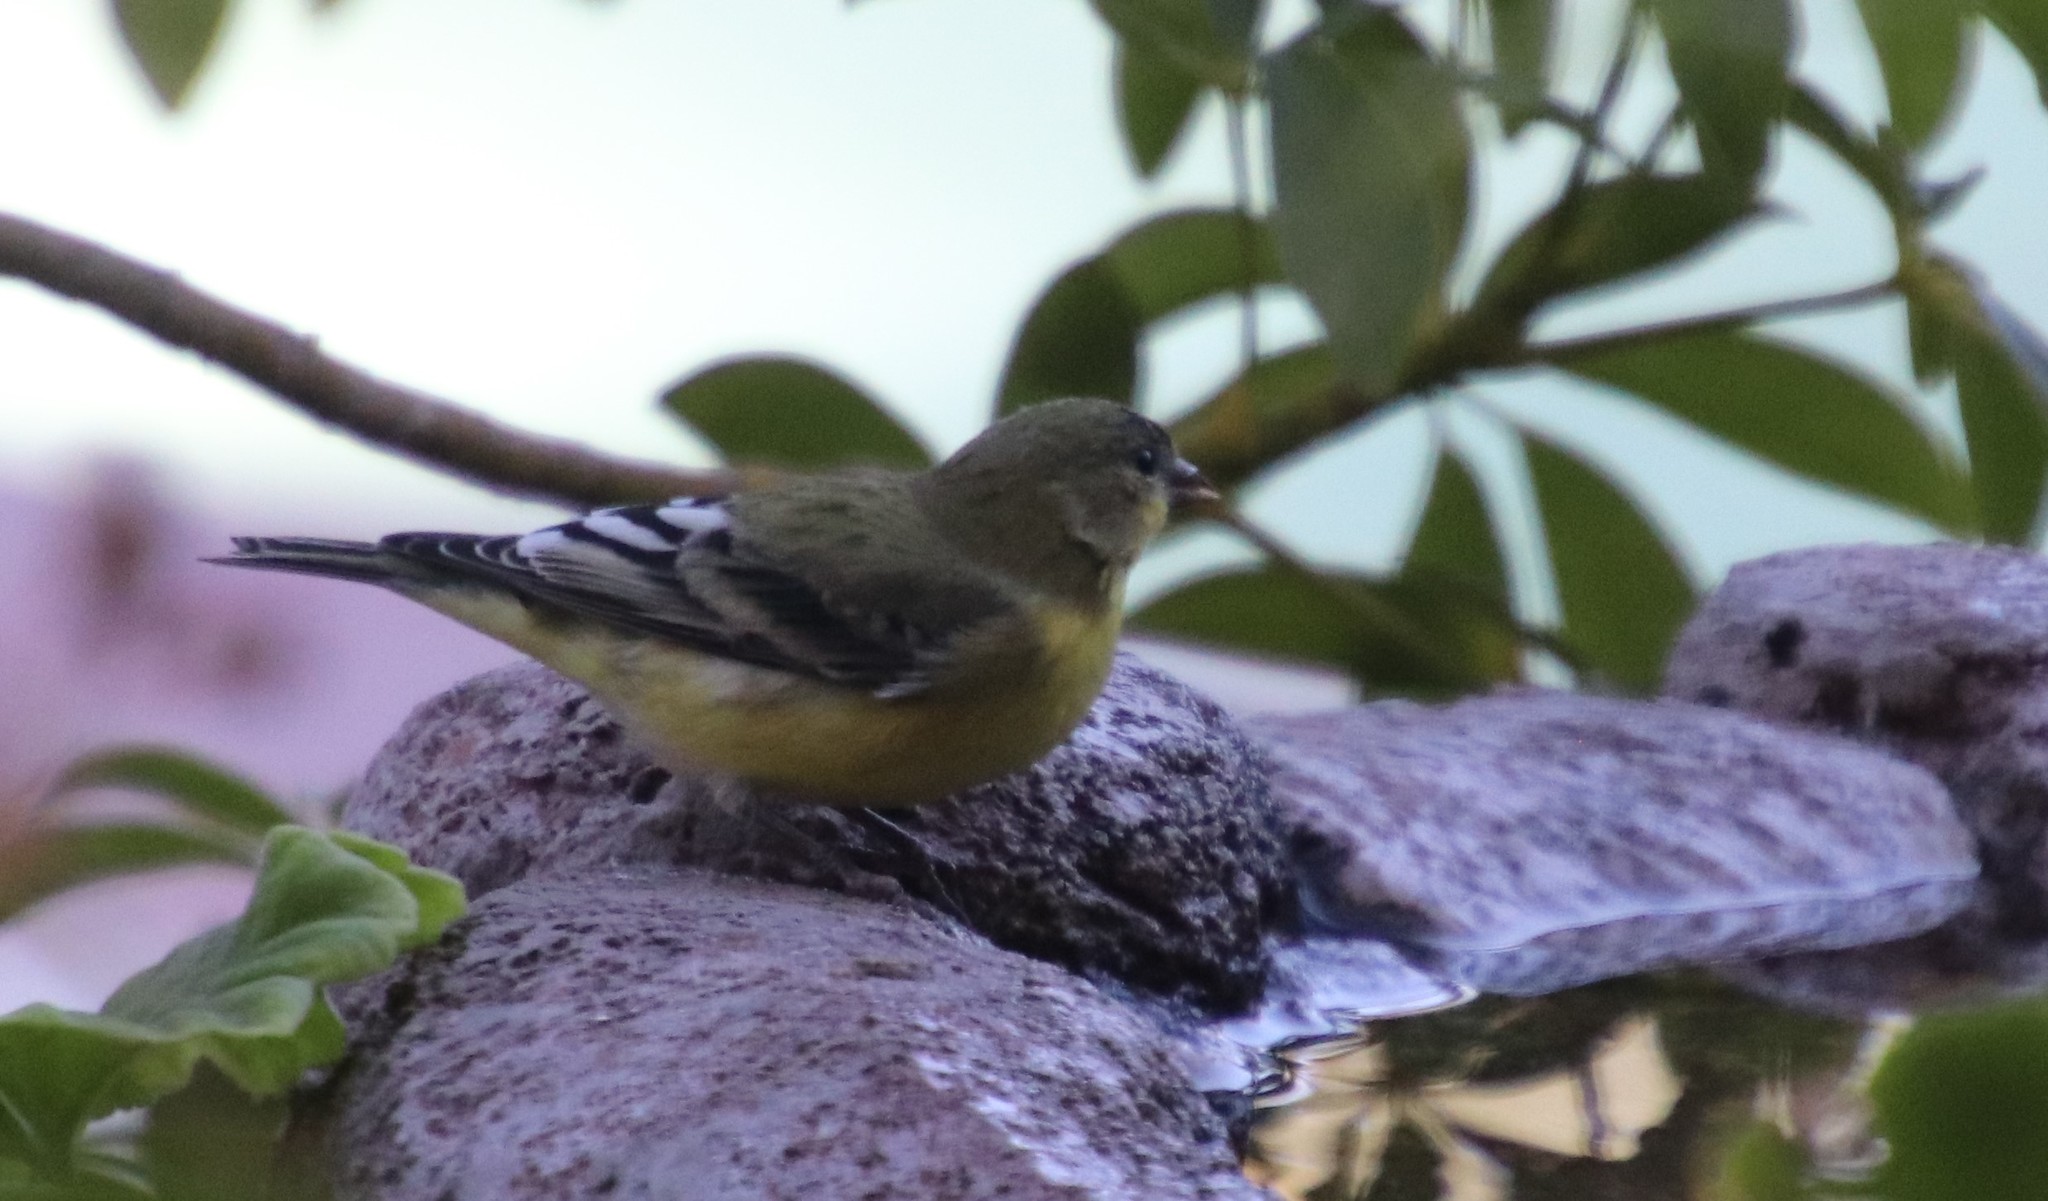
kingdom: Animalia
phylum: Chordata
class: Aves
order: Passeriformes
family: Fringillidae
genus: Spinus
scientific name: Spinus psaltria
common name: Lesser goldfinch
